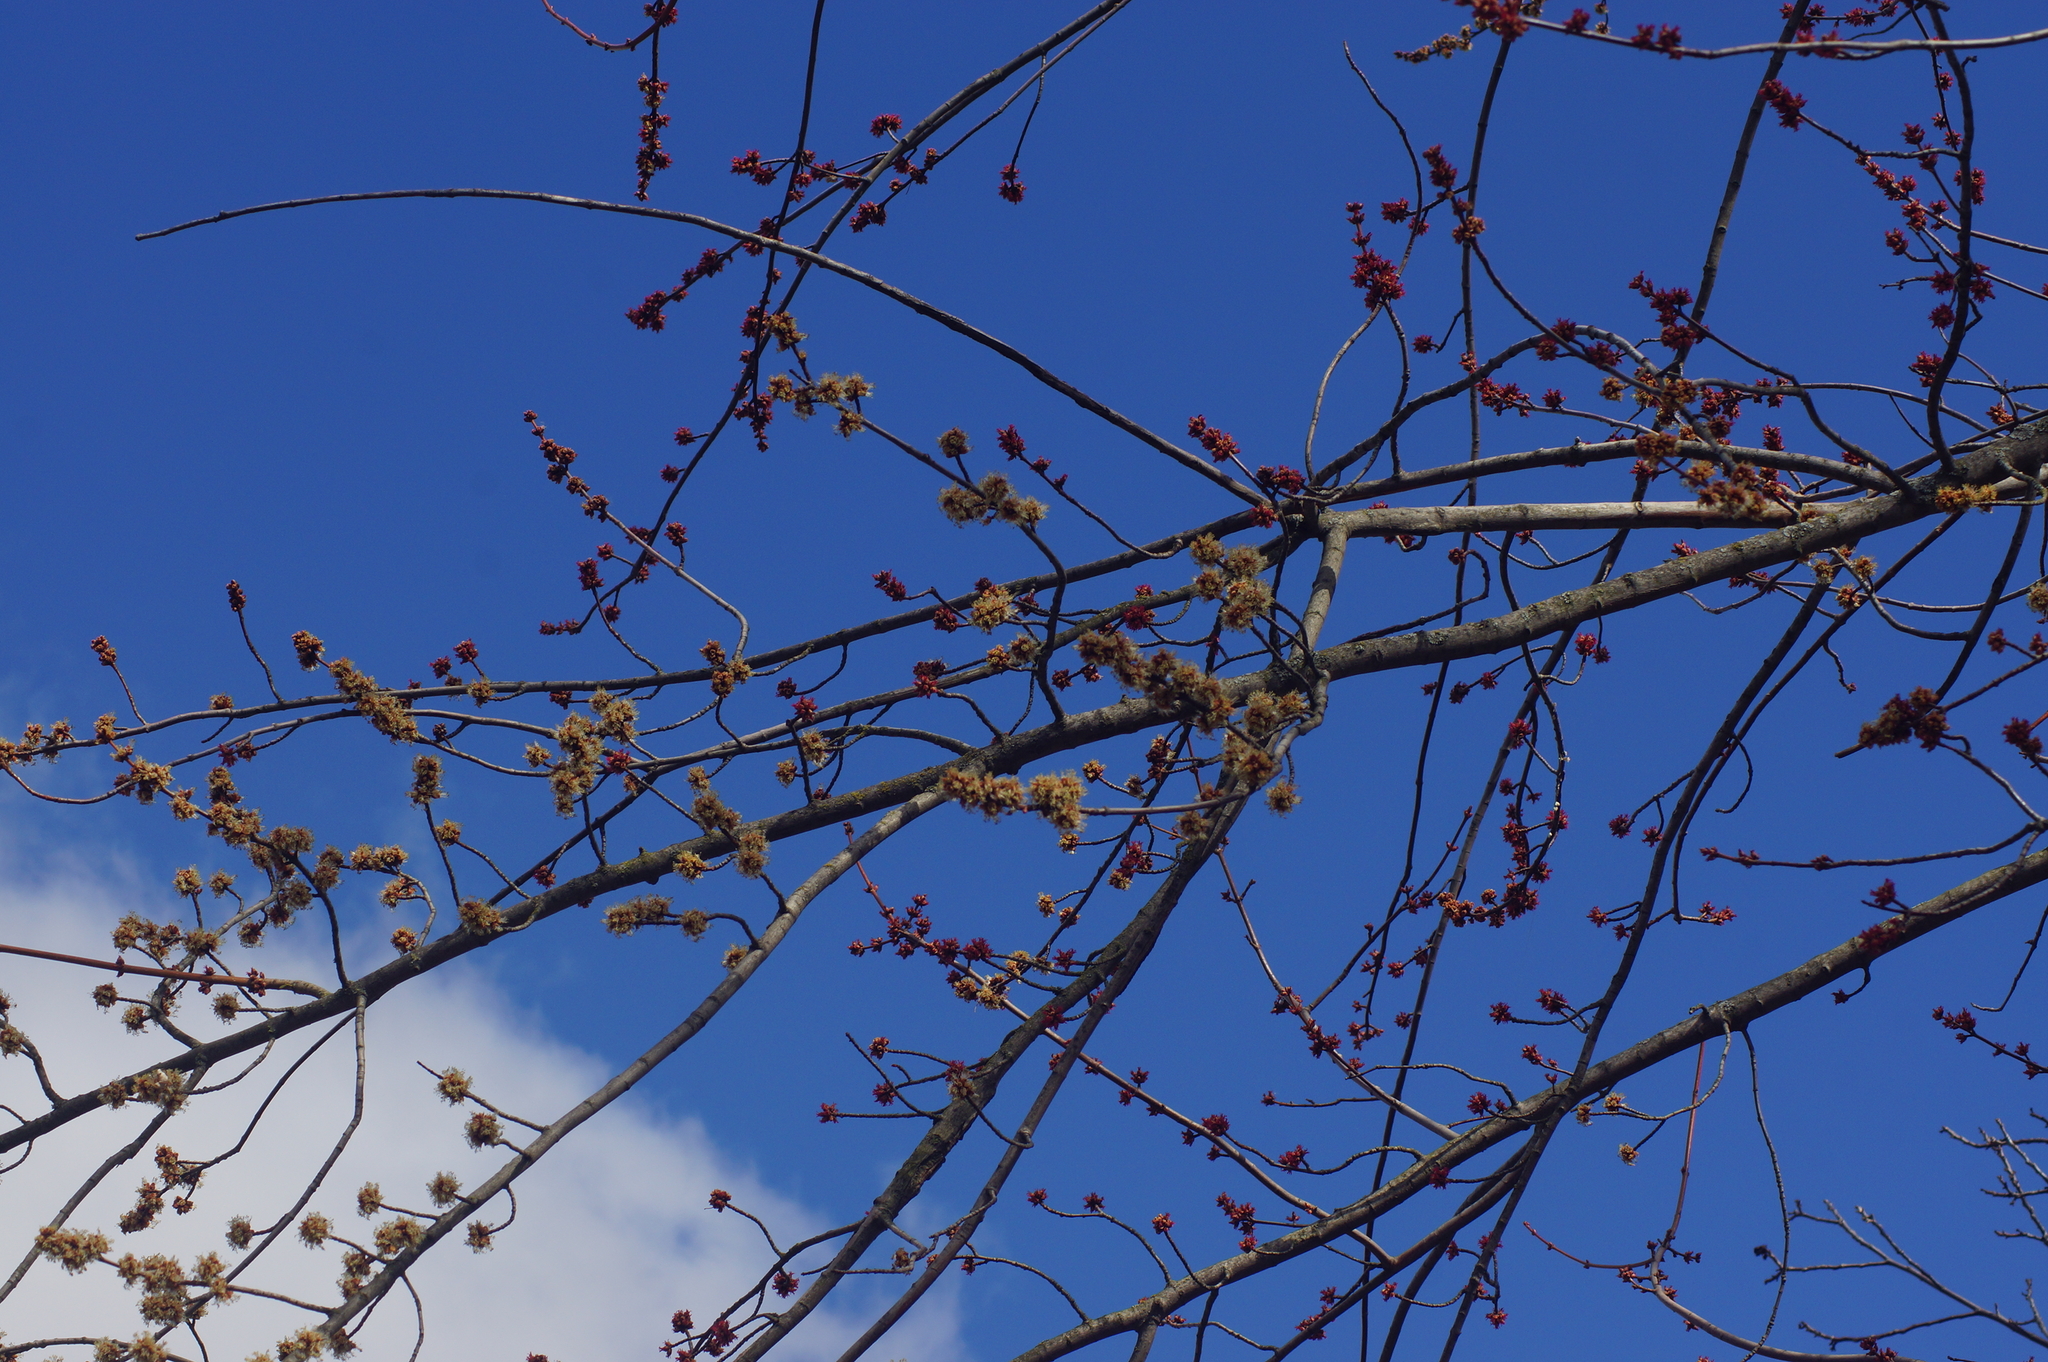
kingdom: Plantae
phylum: Tracheophyta
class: Magnoliopsida
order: Sapindales
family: Sapindaceae
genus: Acer
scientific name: Acer saccharinum
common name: Silver maple
